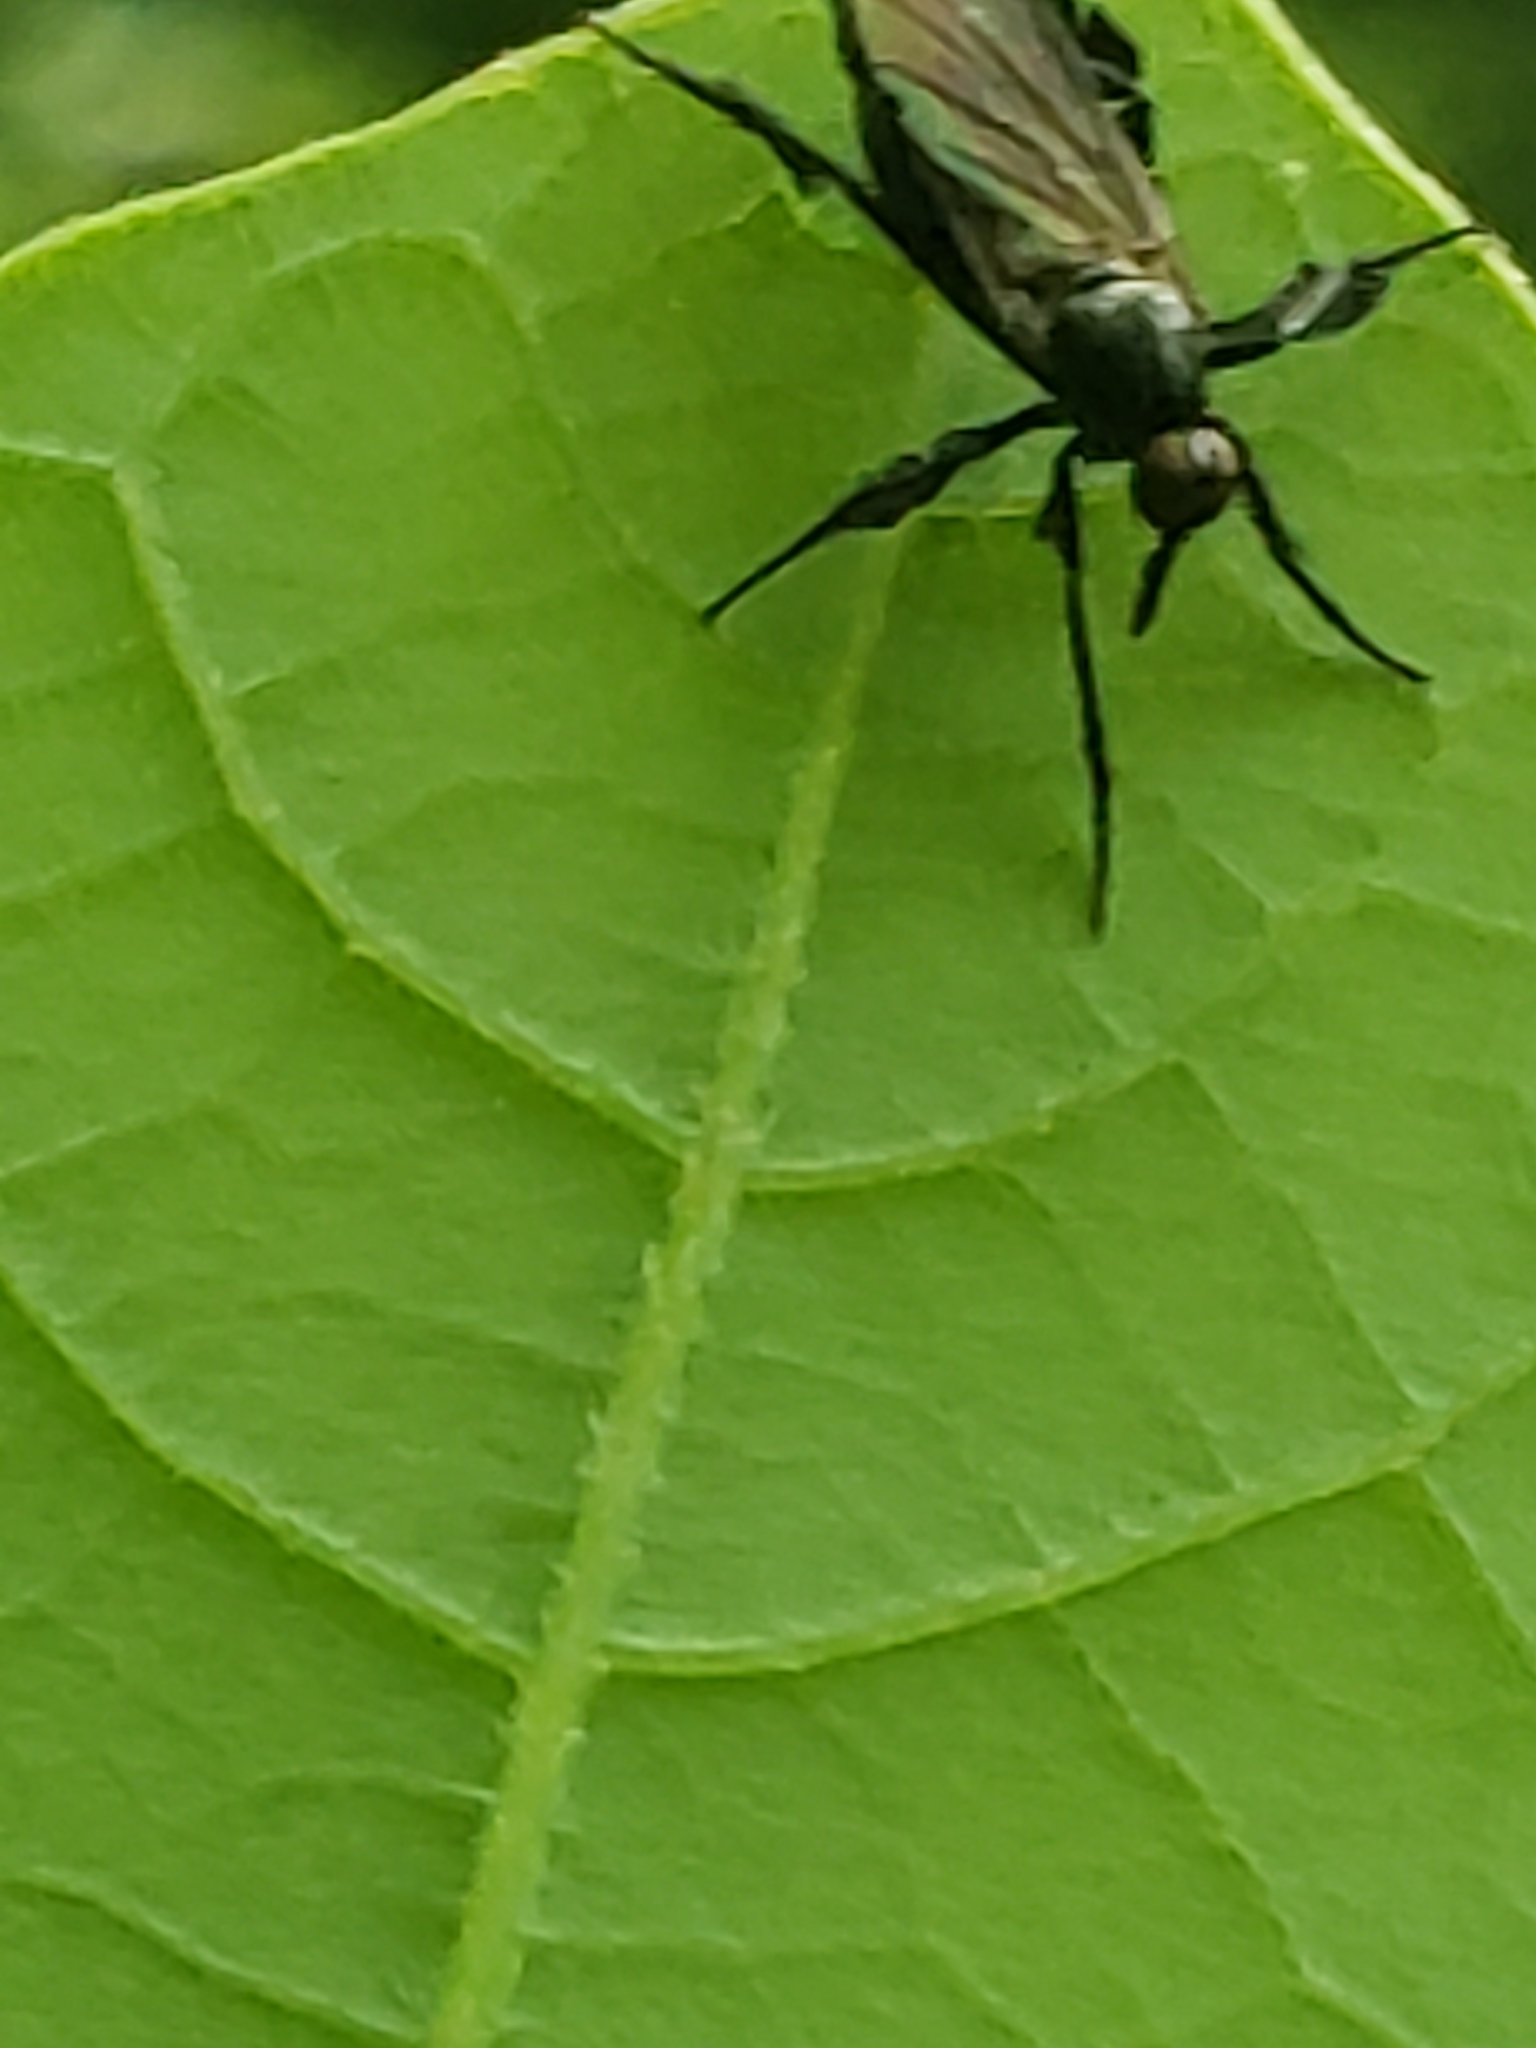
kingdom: Animalia
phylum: Arthropoda
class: Insecta
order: Diptera
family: Empididae
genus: Rhamphomyia
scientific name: Rhamphomyia longicauda
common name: Long-tailed dance fly
